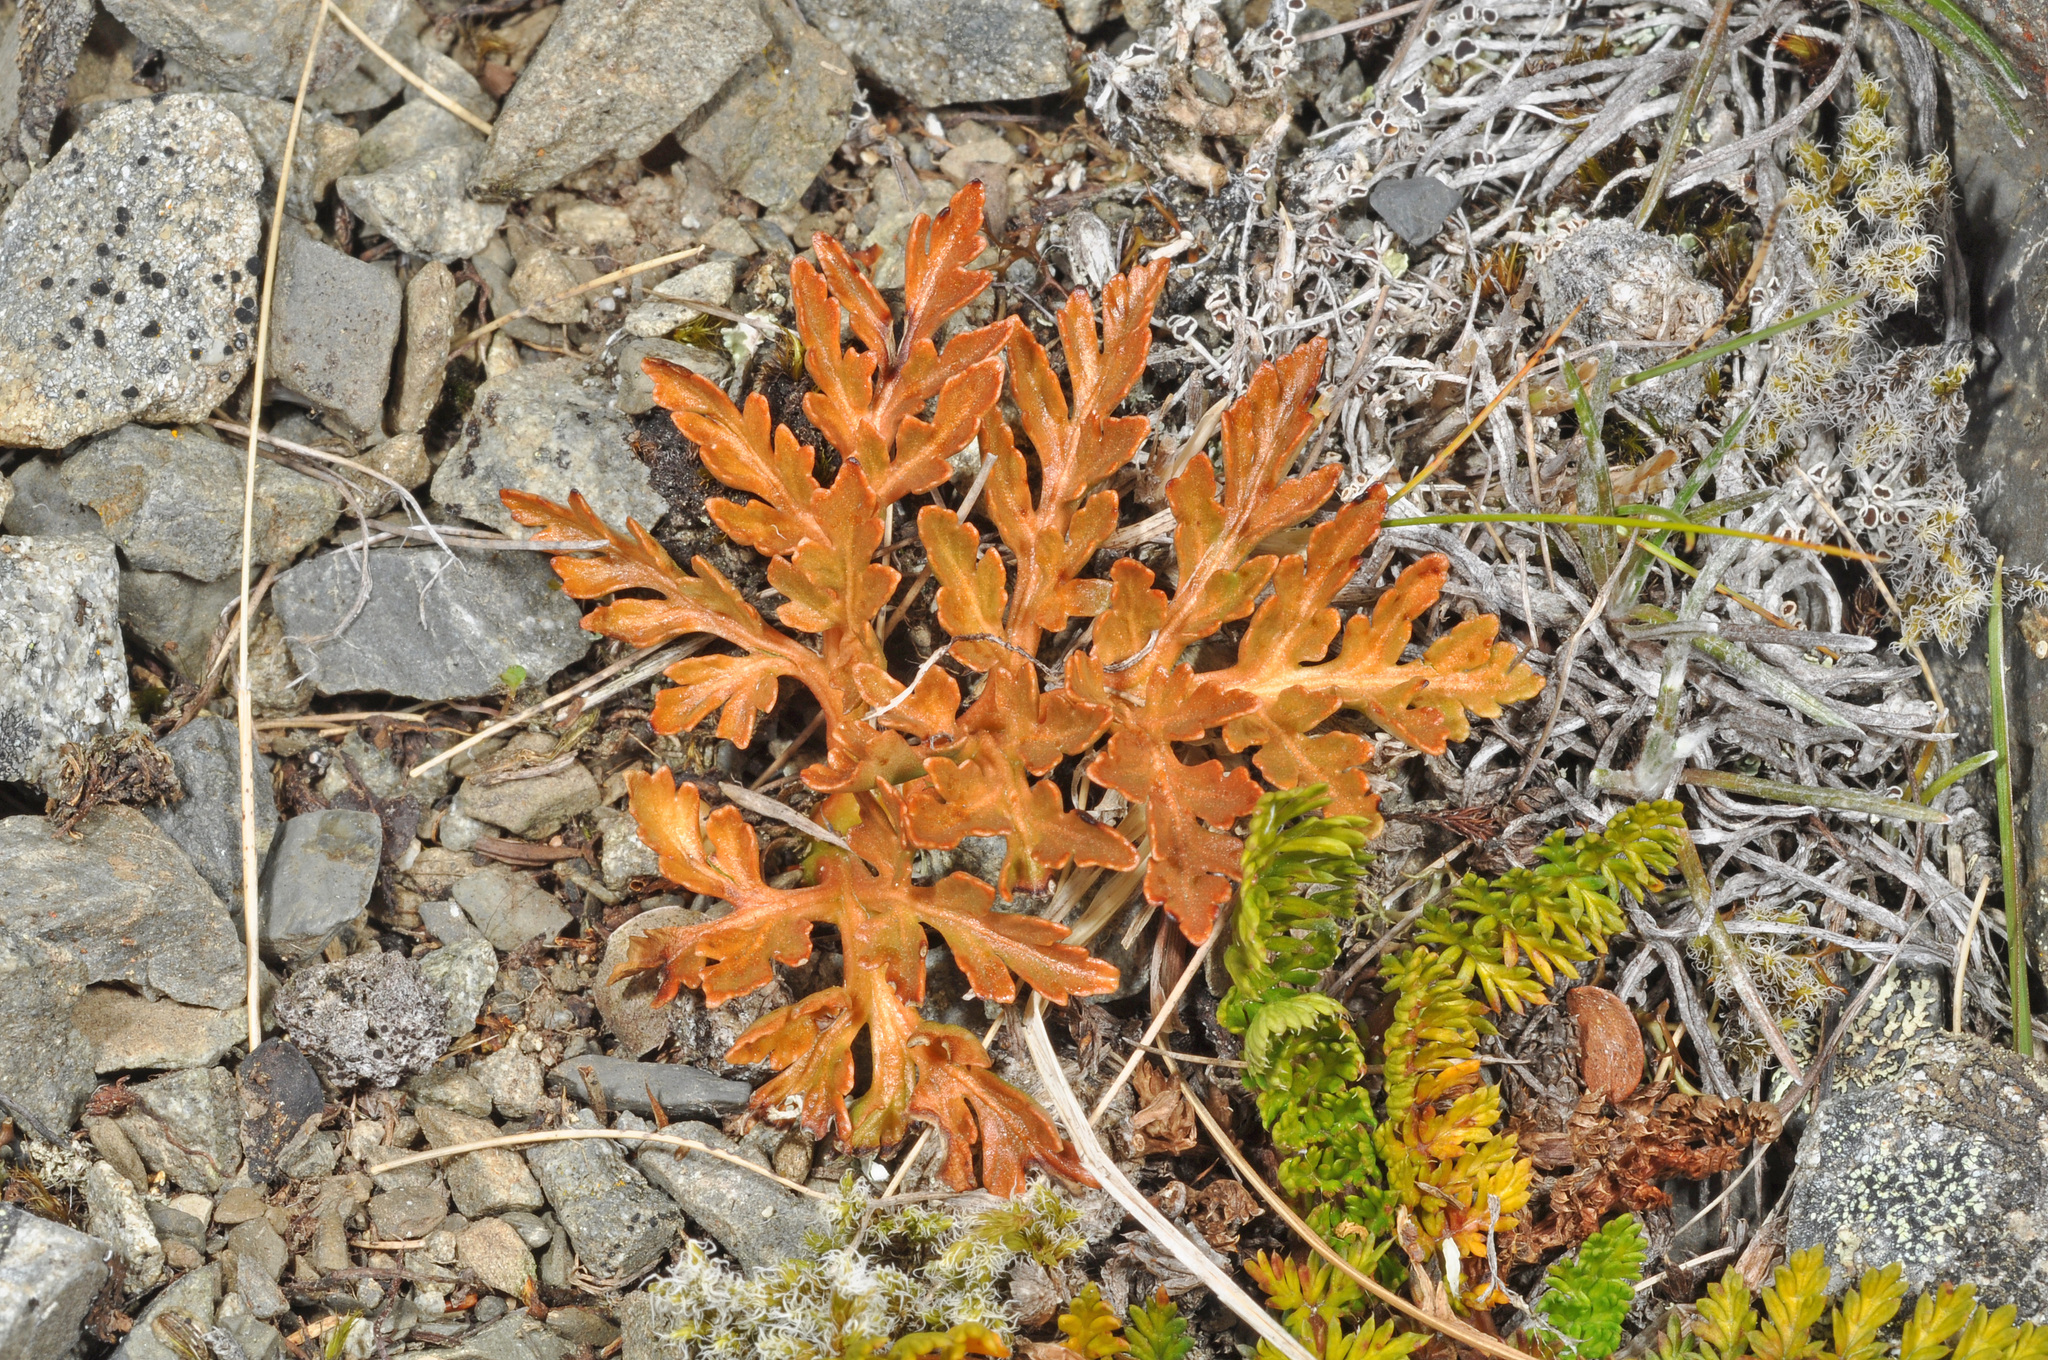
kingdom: Plantae
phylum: Tracheophyta
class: Polypodiopsida
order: Ophioglossales
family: Ophioglossaceae
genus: Sceptridium
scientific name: Sceptridium australe
